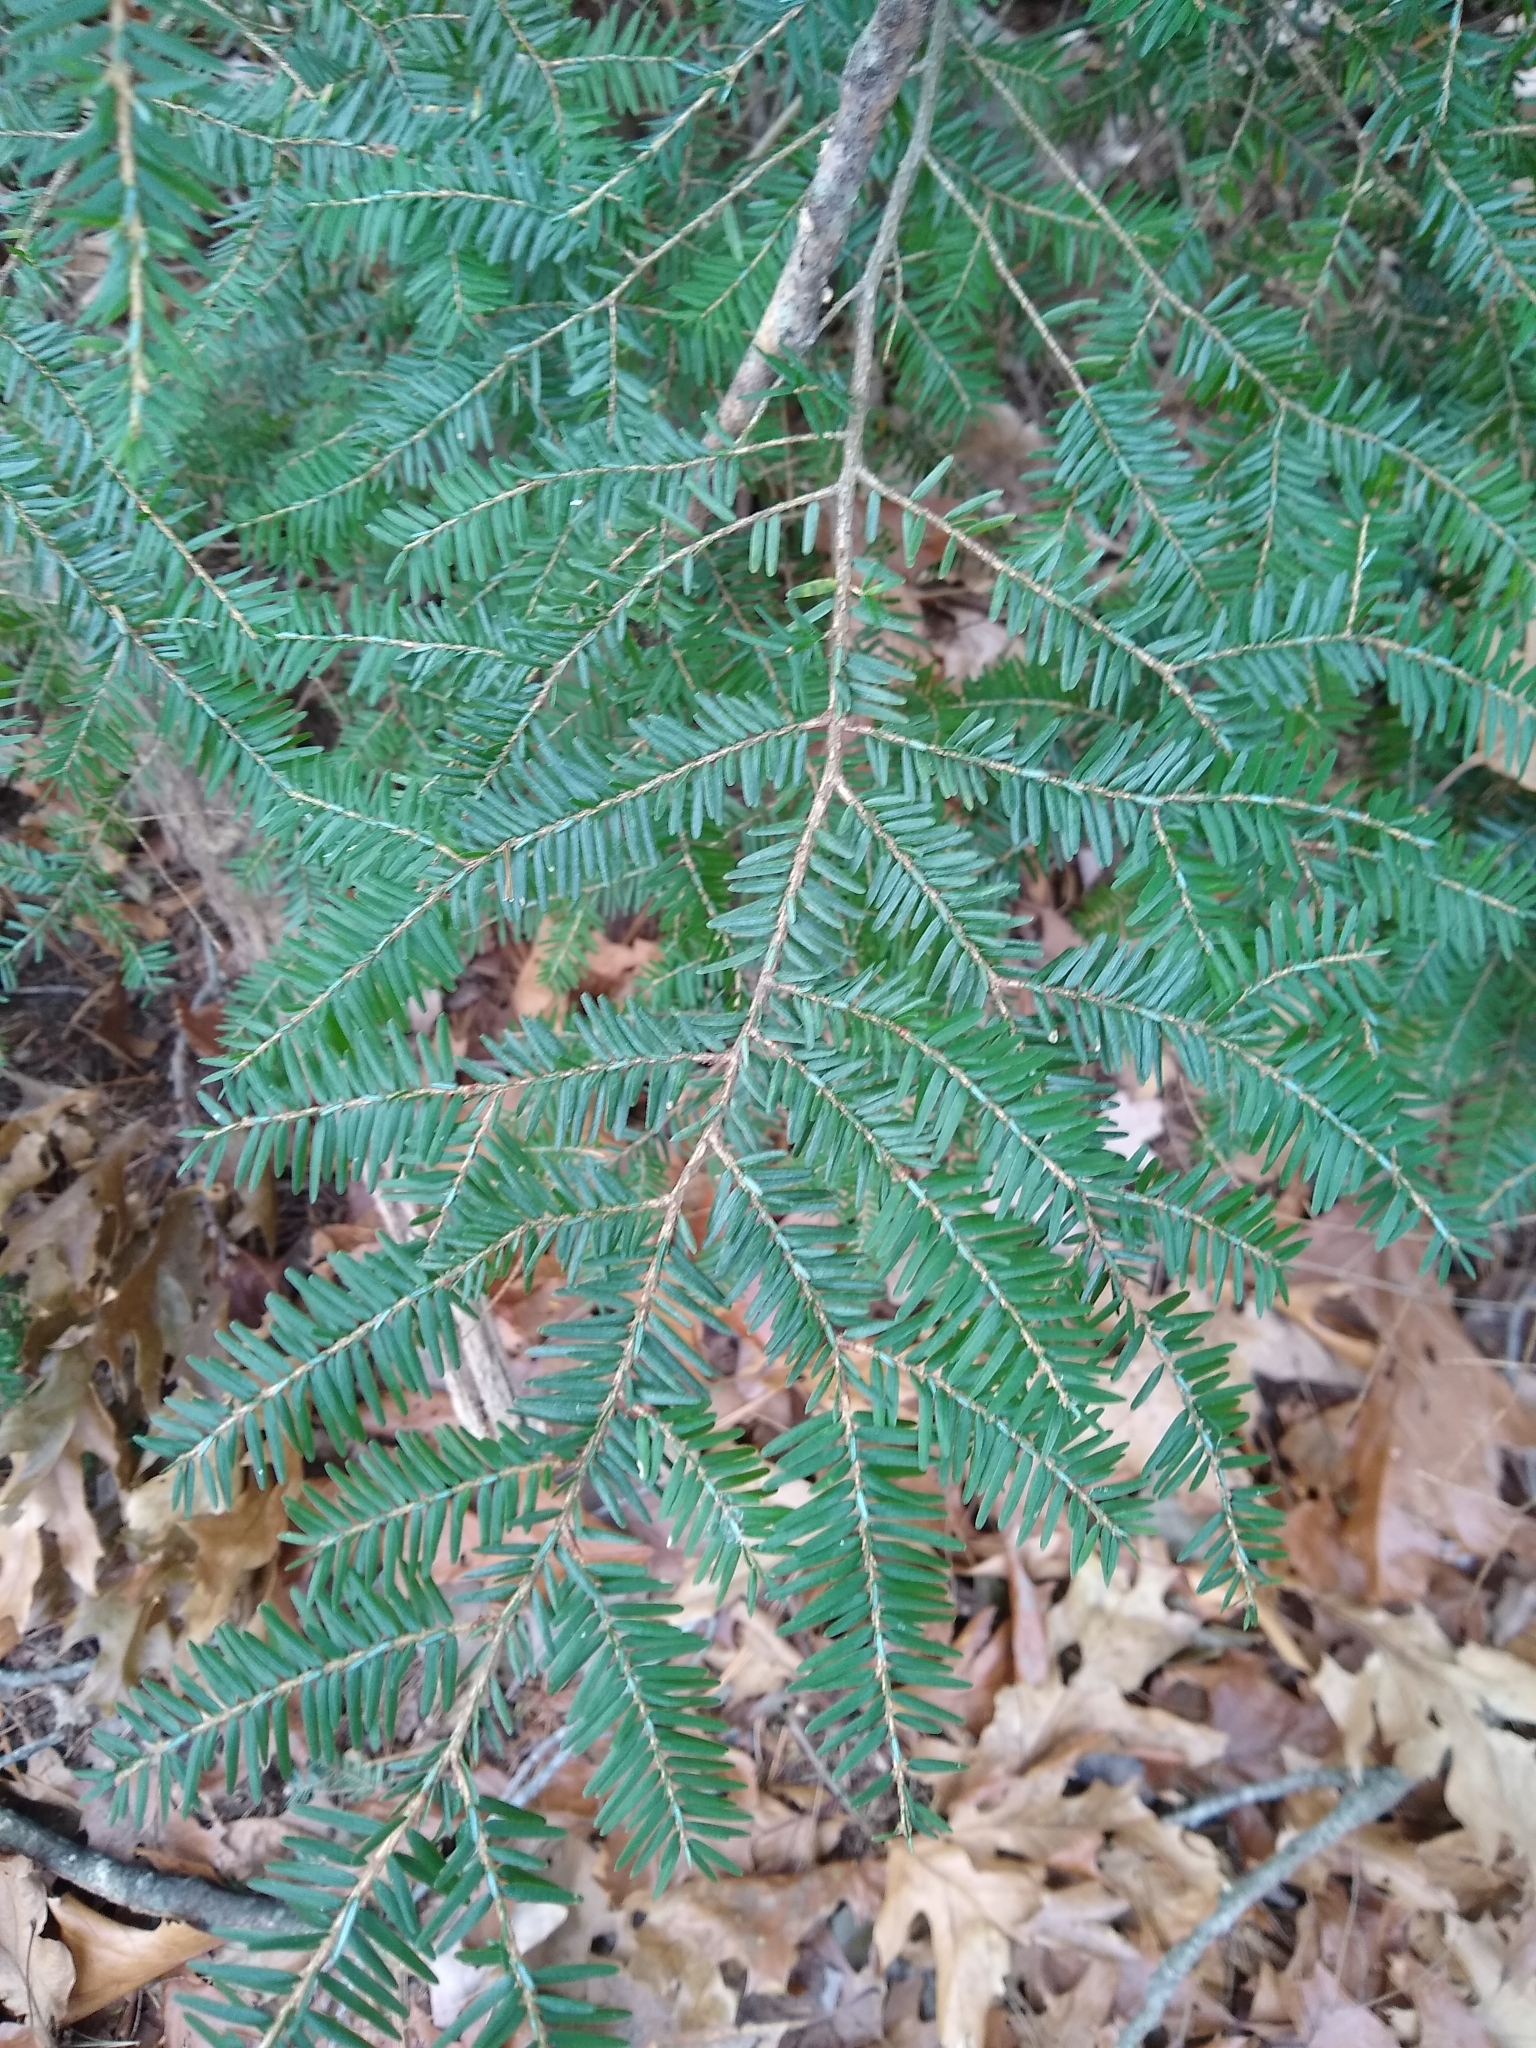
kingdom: Plantae
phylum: Tracheophyta
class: Pinopsida
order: Pinales
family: Pinaceae
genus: Tsuga
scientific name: Tsuga canadensis
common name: Eastern hemlock
